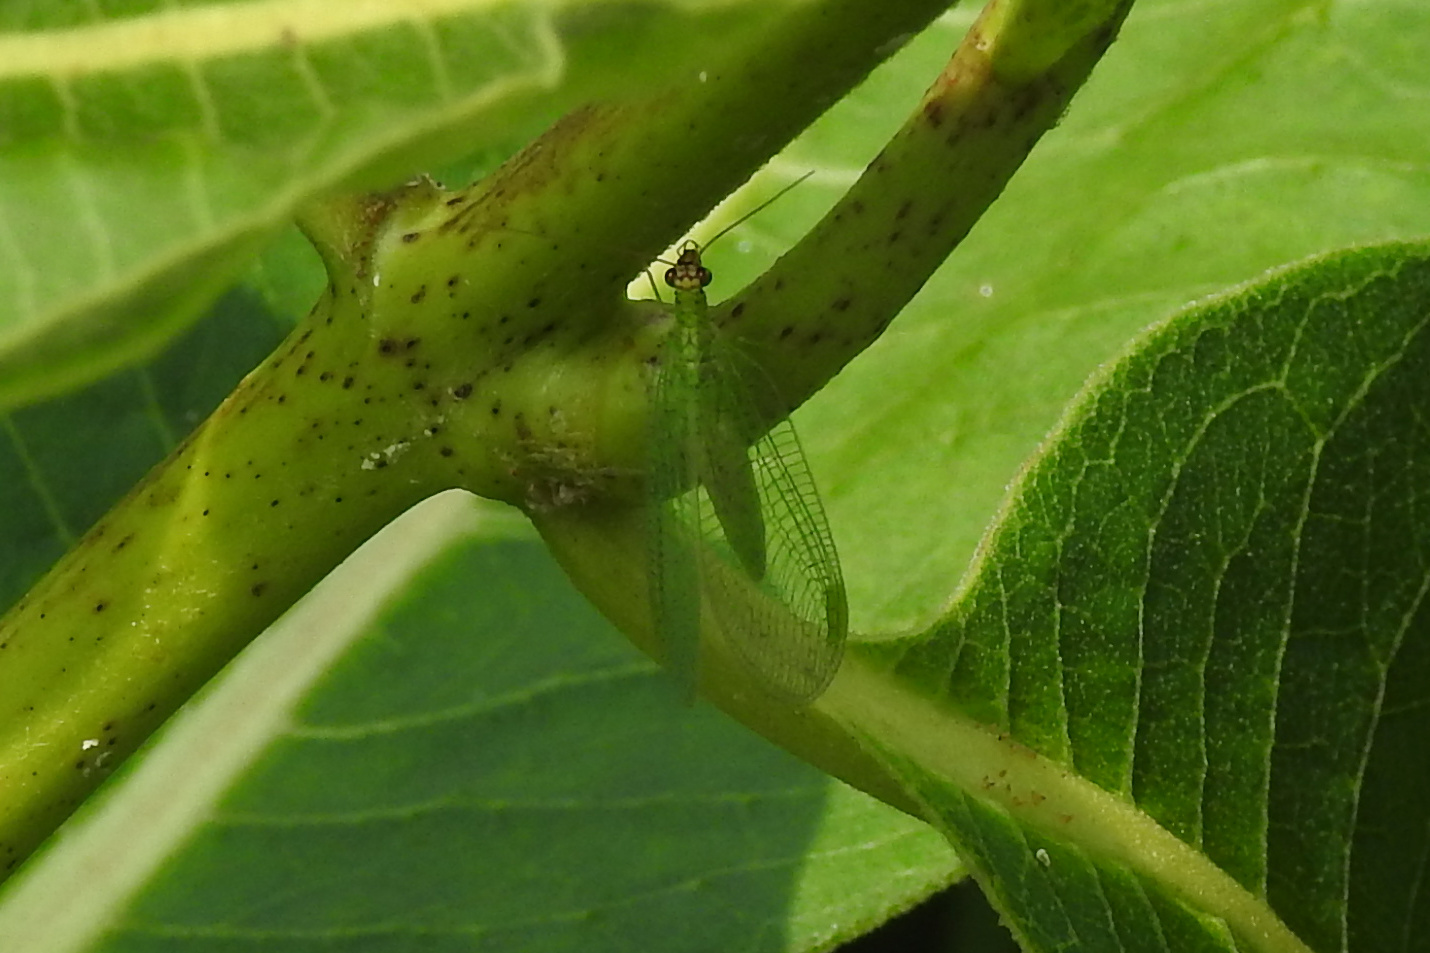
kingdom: Animalia
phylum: Arthropoda
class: Insecta
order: Neuroptera
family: Chrysopidae
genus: Chrysopa
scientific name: Chrysopa oculata
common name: Golden-eyed lacewing
